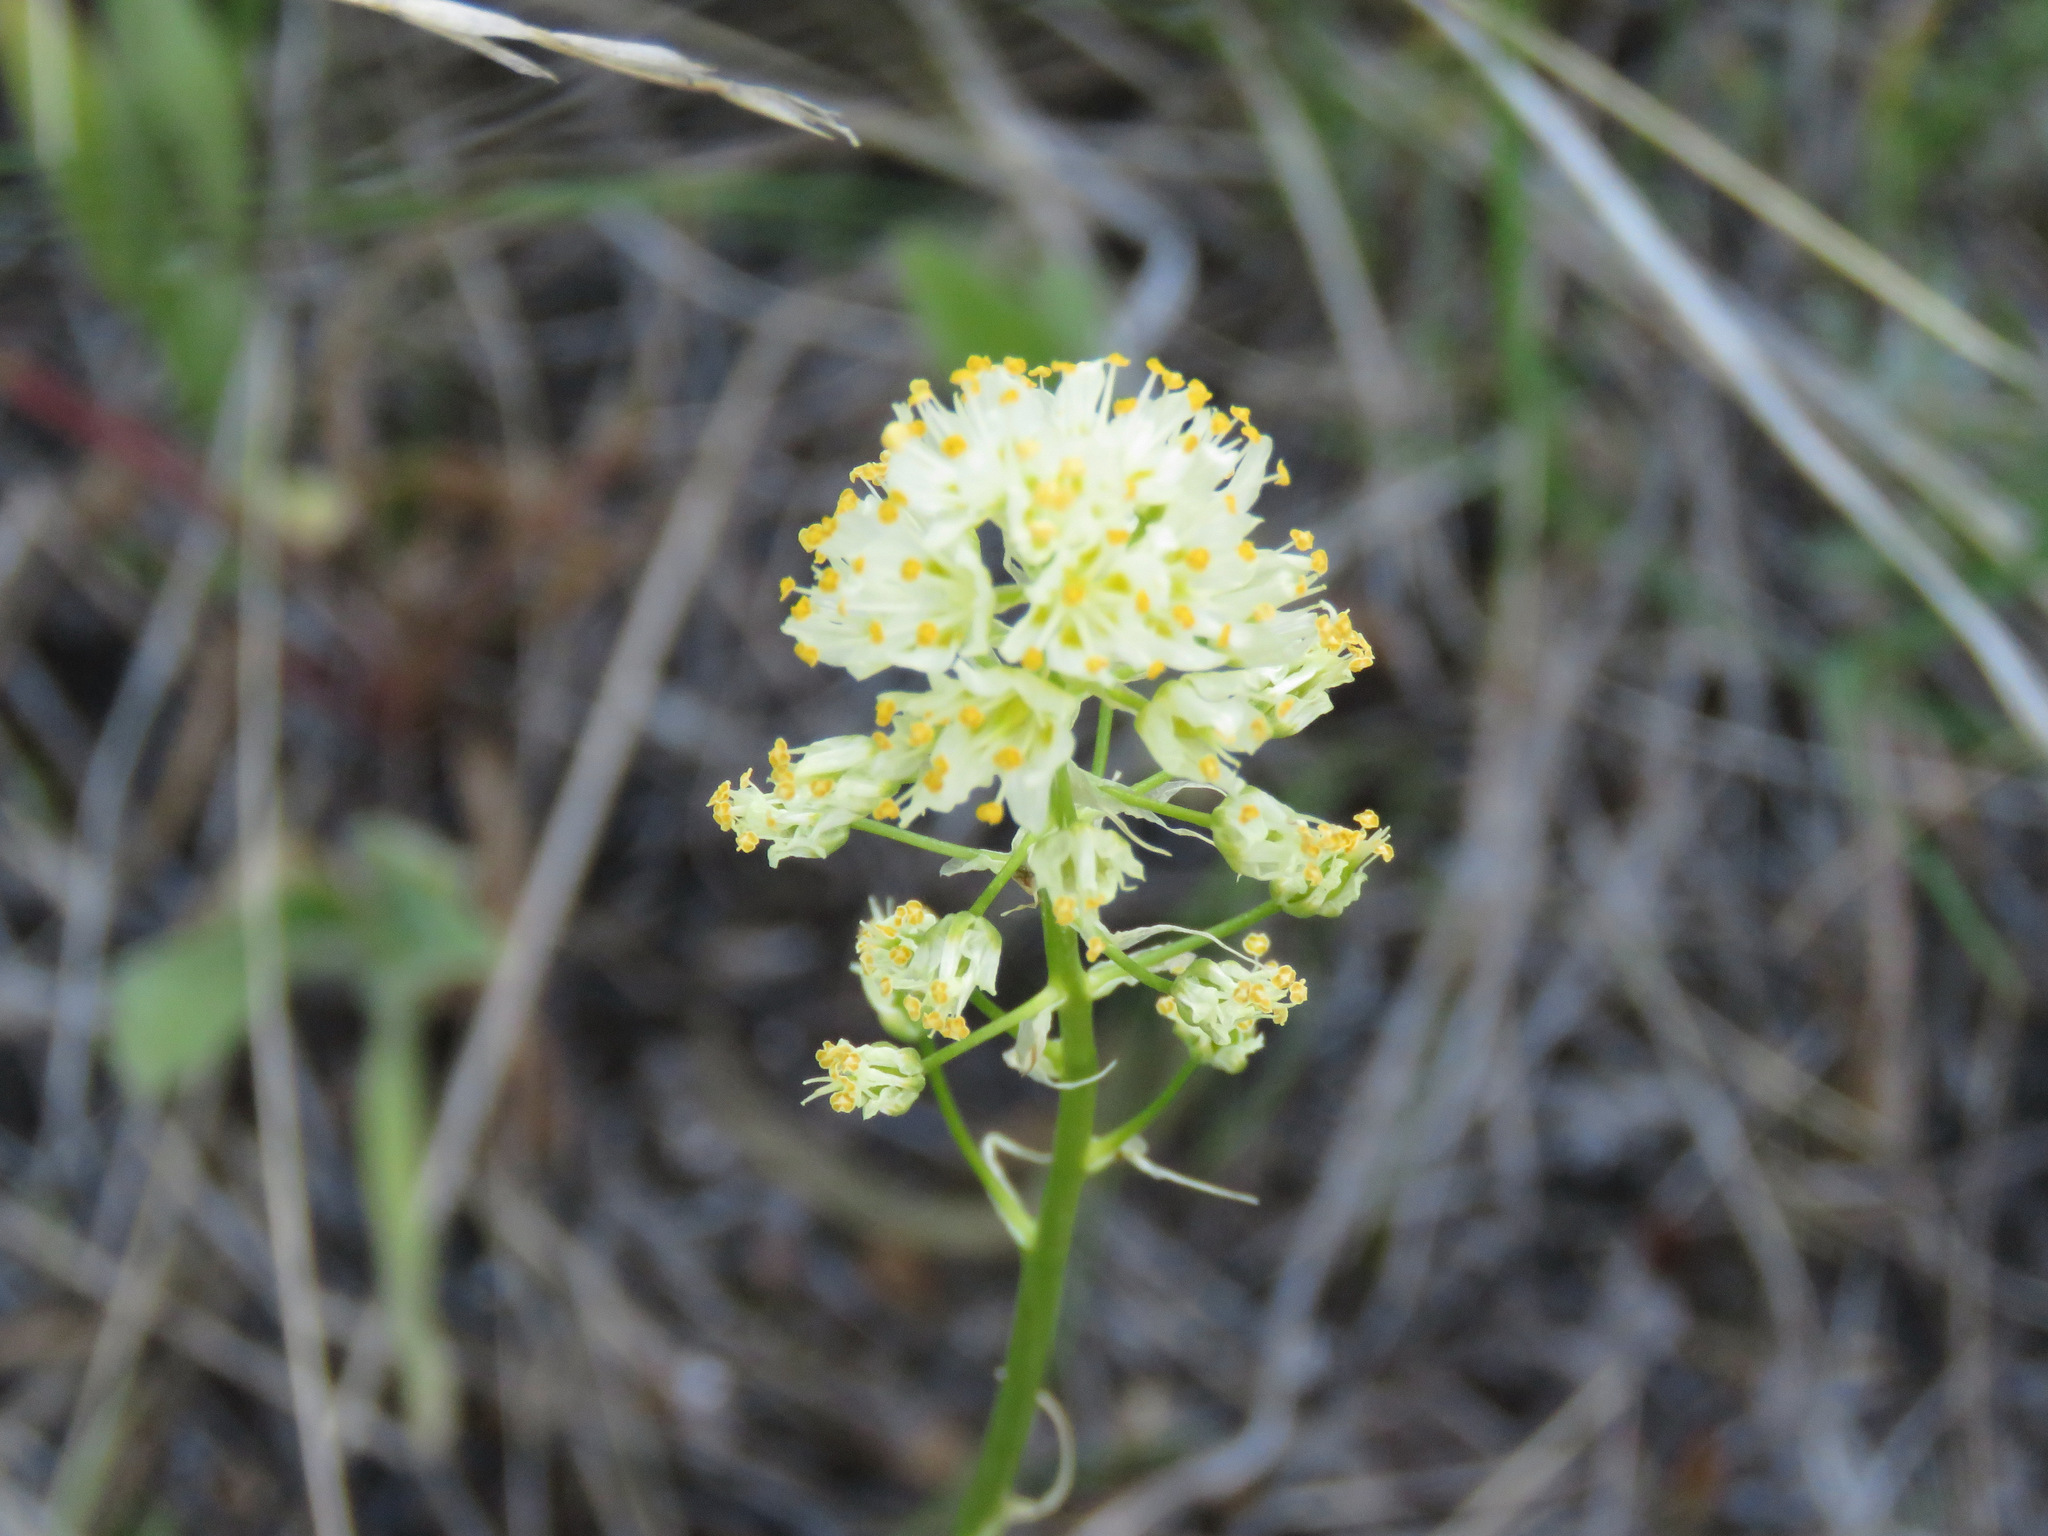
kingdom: Plantae
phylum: Tracheophyta
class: Liliopsida
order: Liliales
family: Melanthiaceae
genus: Toxicoscordion
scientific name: Toxicoscordion venenosum
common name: Meadow death camas
